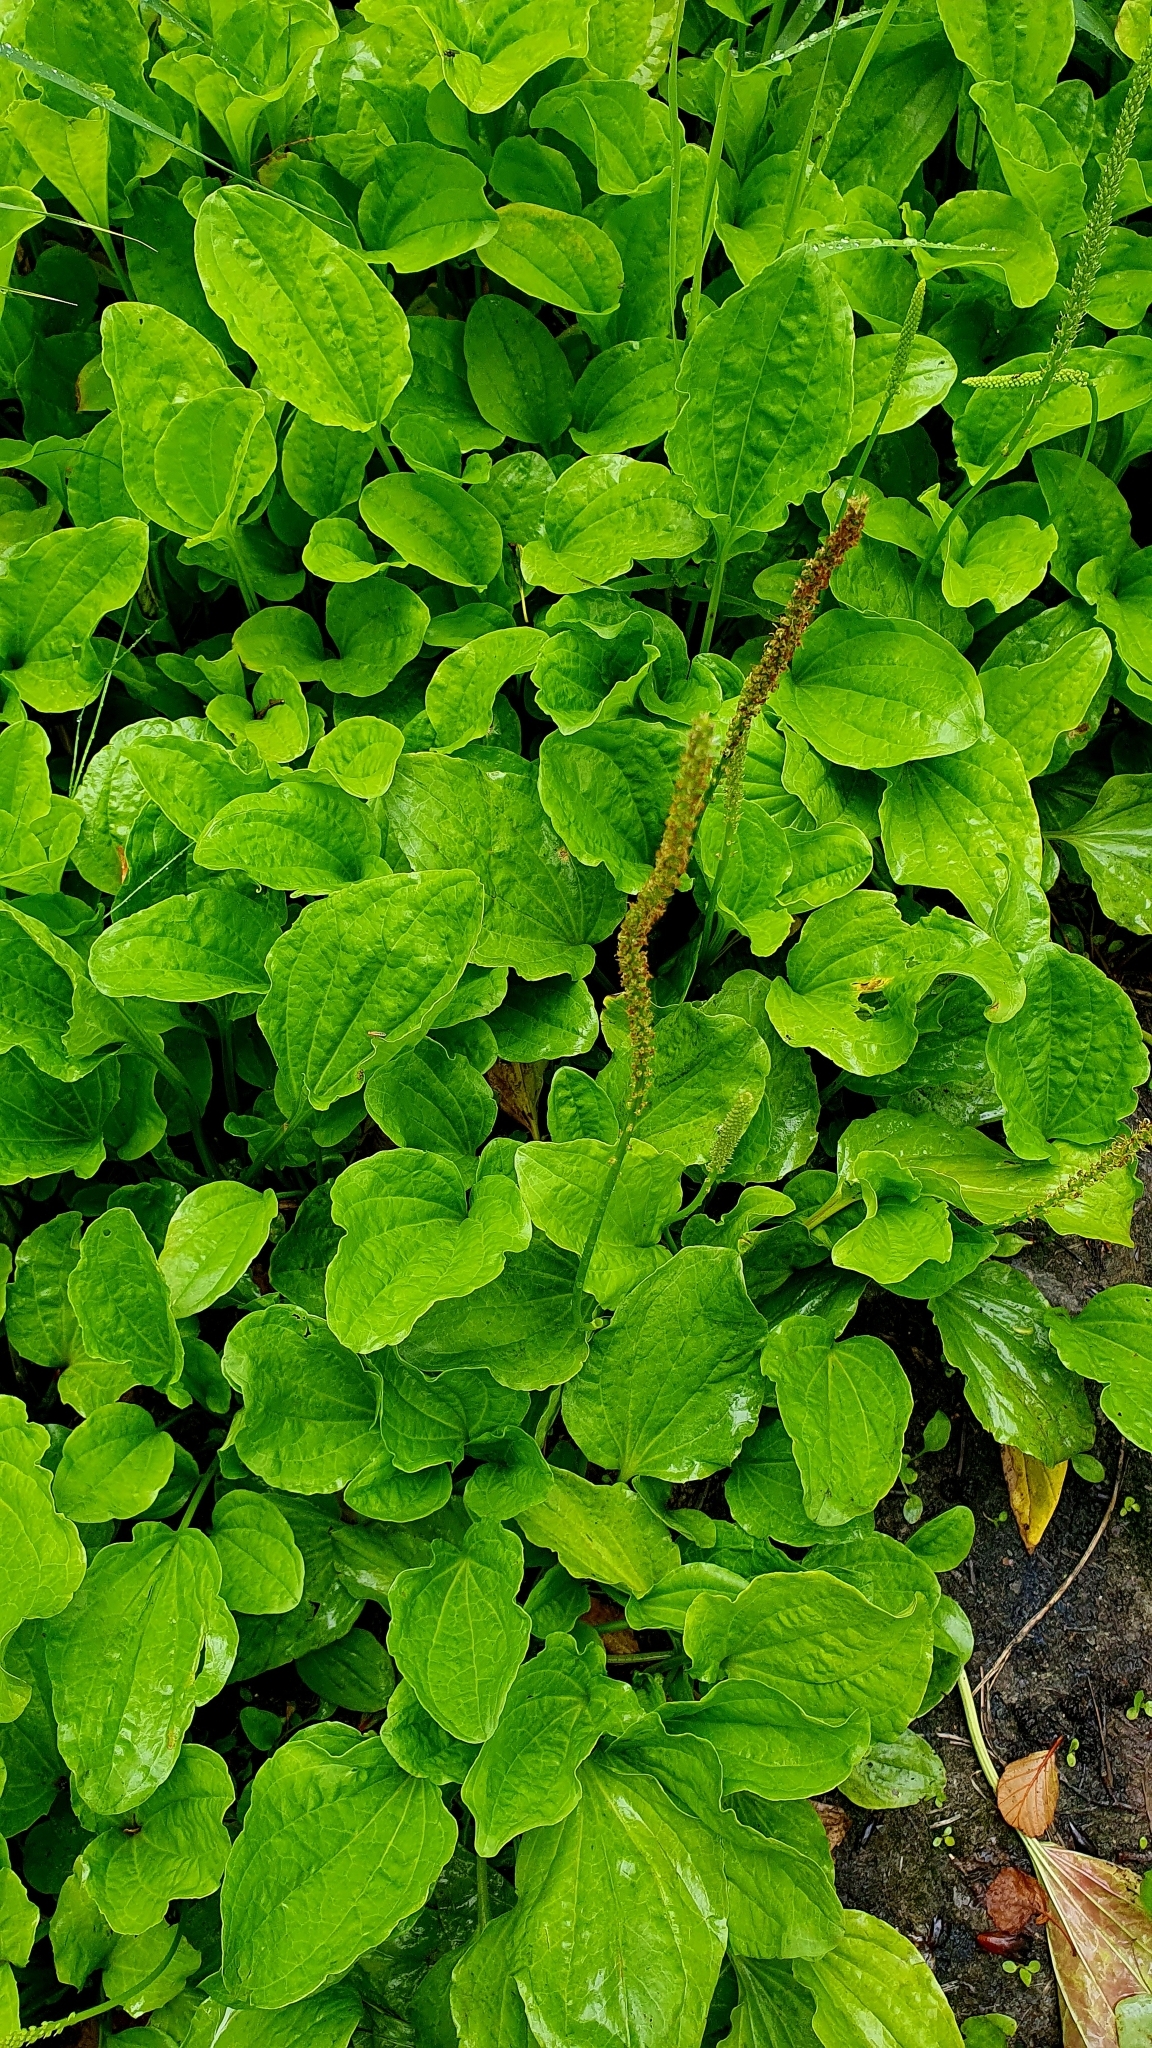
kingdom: Plantae
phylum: Tracheophyta
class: Magnoliopsida
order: Lamiales
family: Plantaginaceae
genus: Plantago
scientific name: Plantago major
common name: Common plantain
